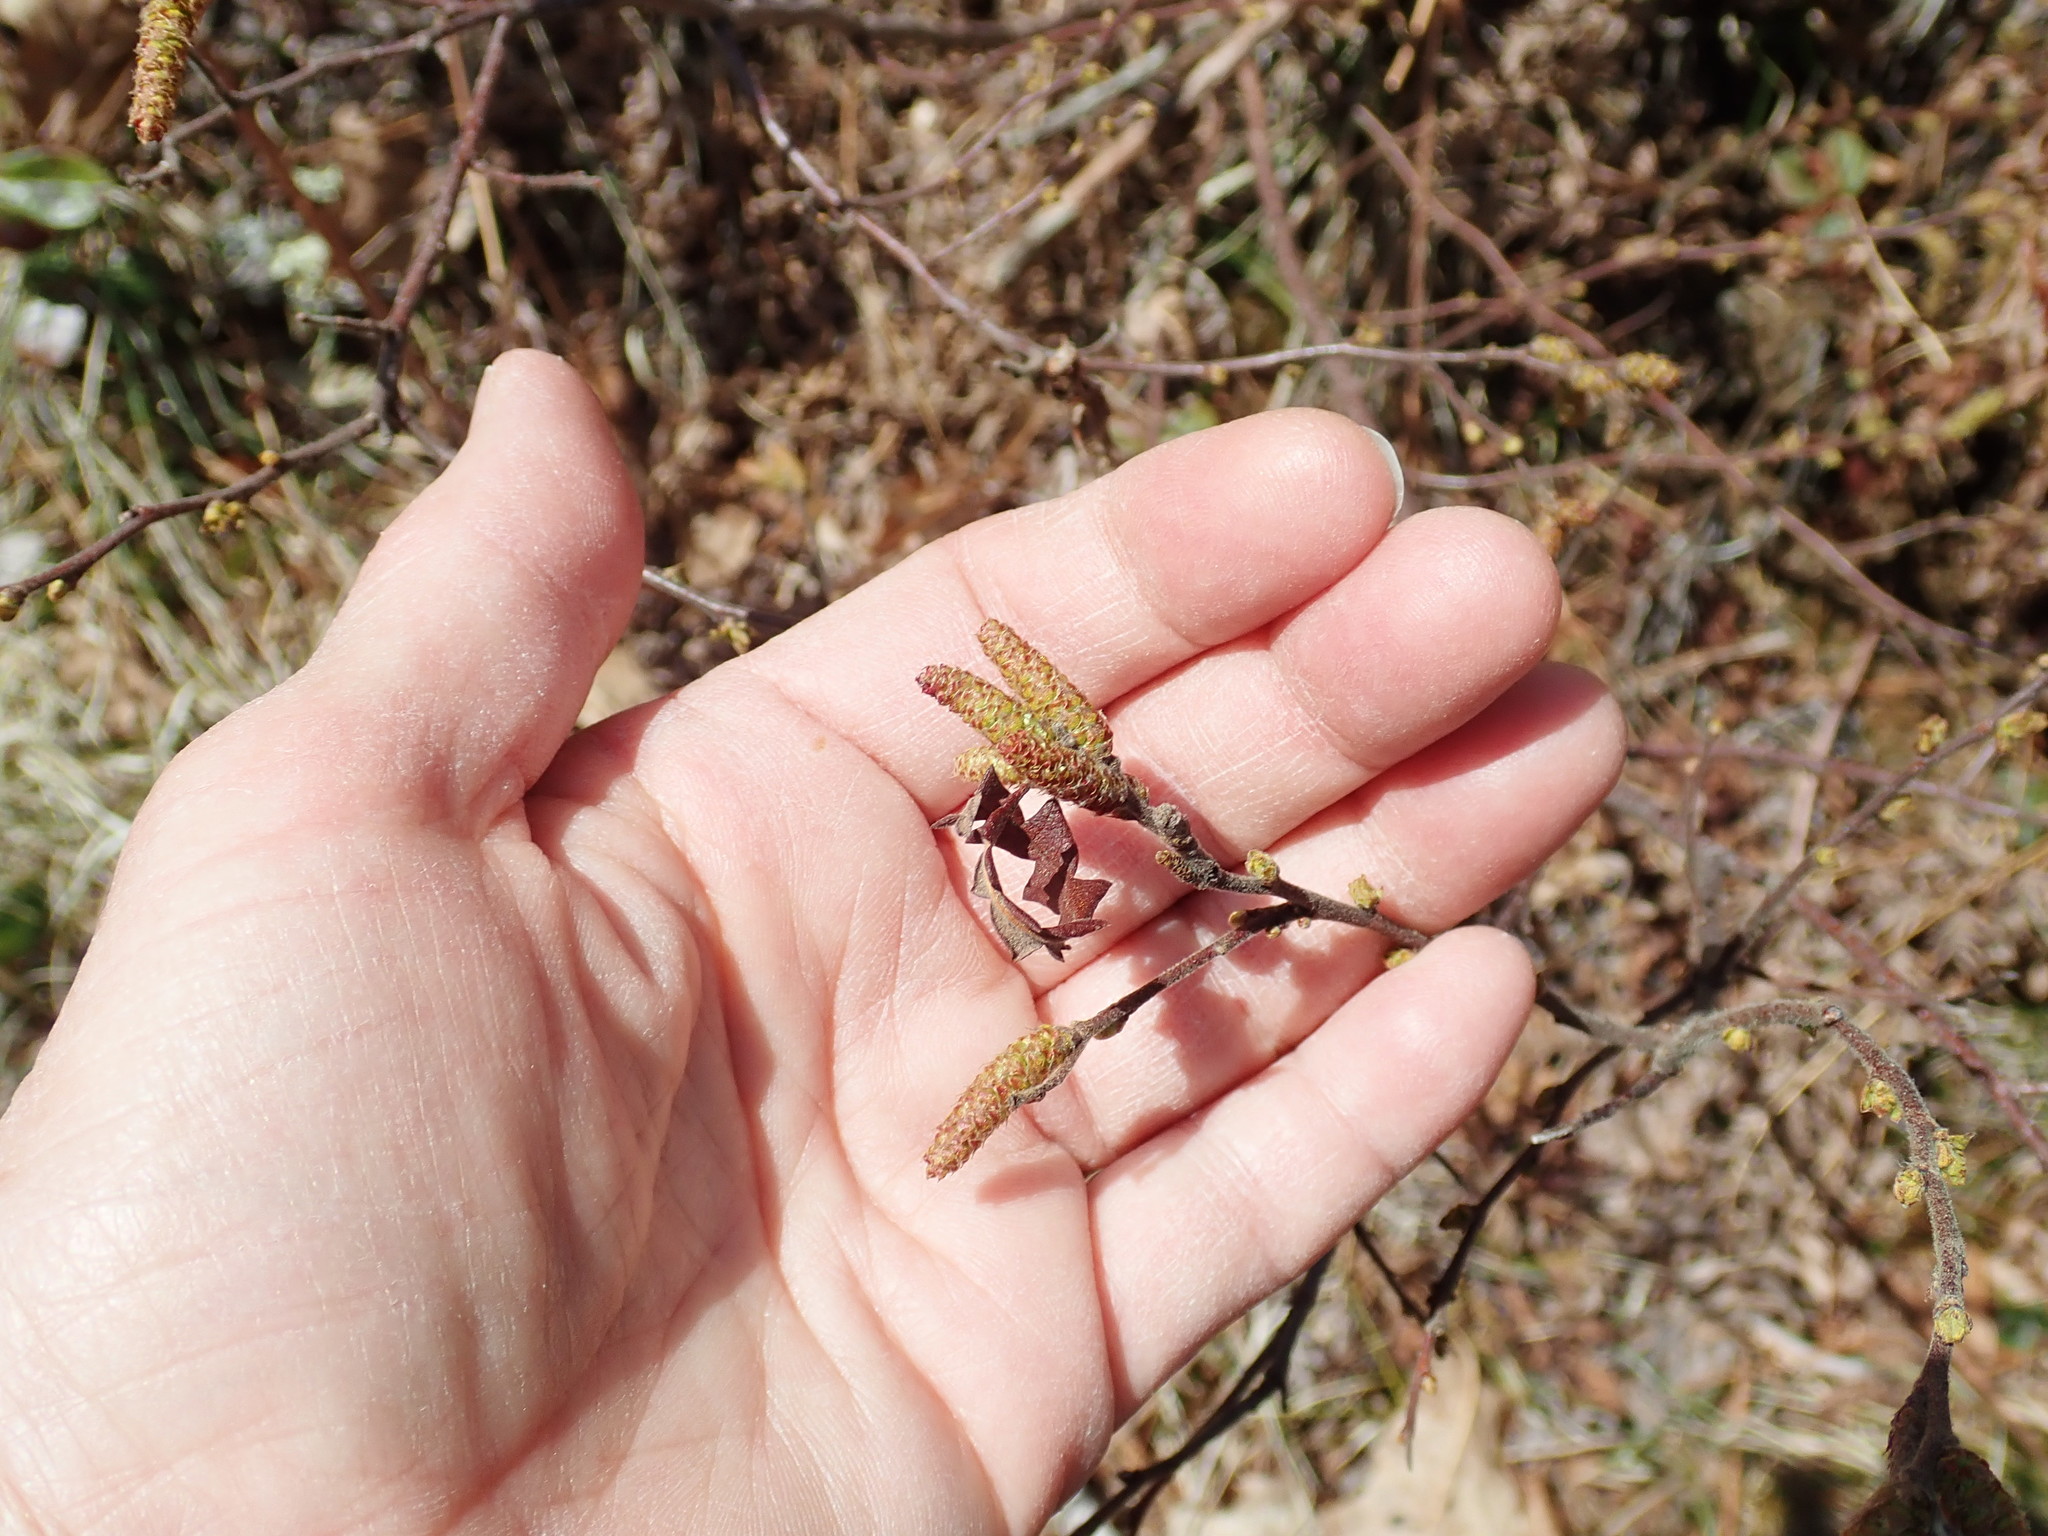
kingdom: Plantae
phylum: Tracheophyta
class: Magnoliopsida
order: Fagales
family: Myricaceae
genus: Comptonia
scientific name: Comptonia peregrina
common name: Sweet-fern
